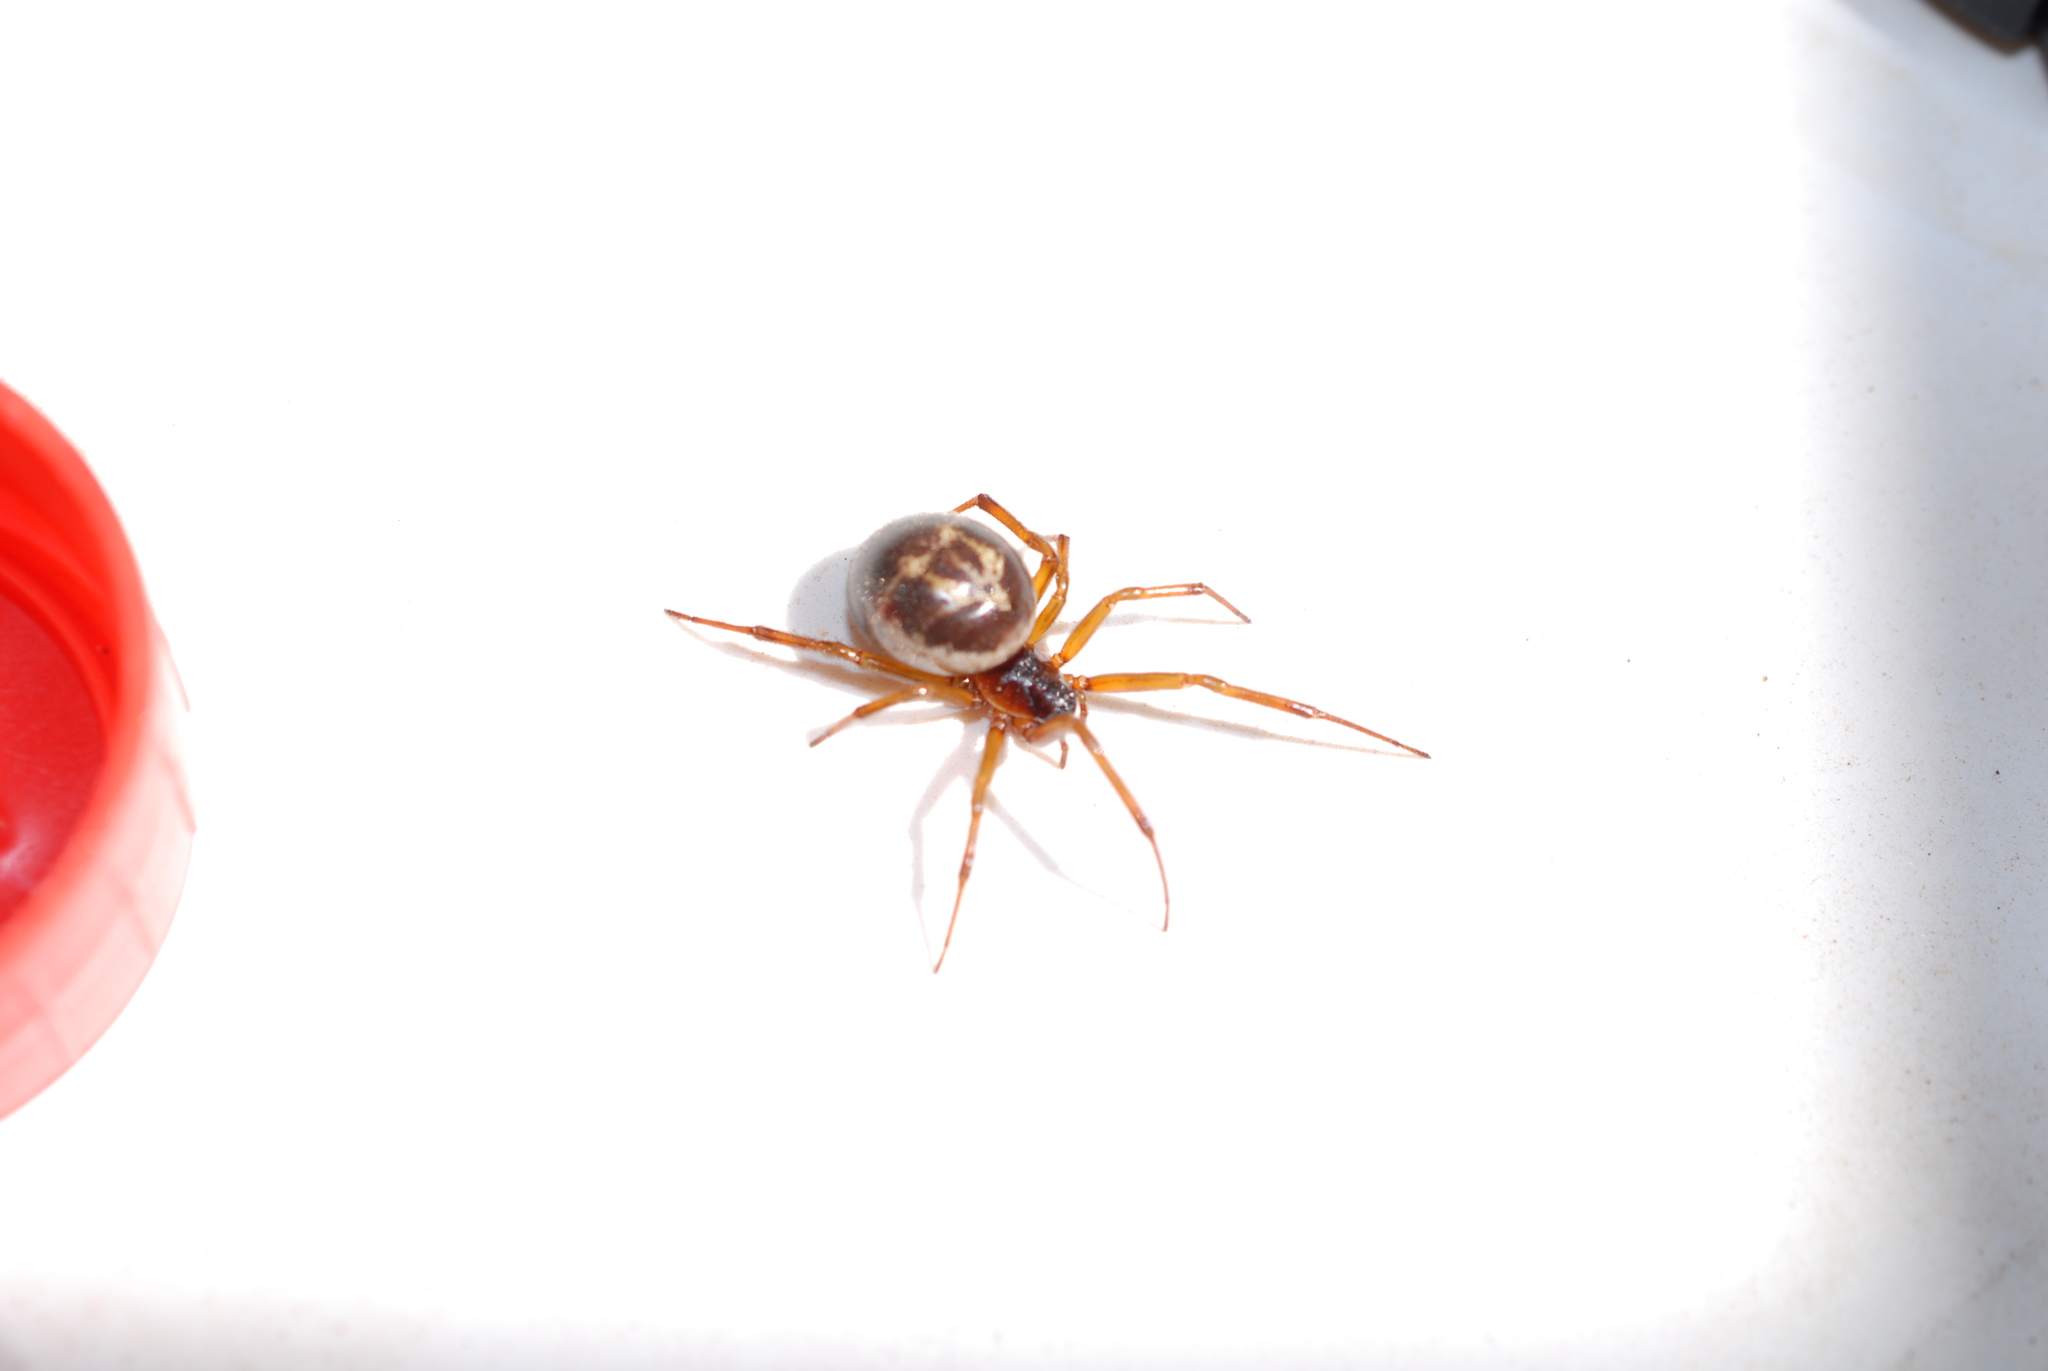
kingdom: Animalia
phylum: Arthropoda
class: Arachnida
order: Araneae
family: Theridiidae
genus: Steatoda
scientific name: Steatoda nobilis
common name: Cobweb weaver
